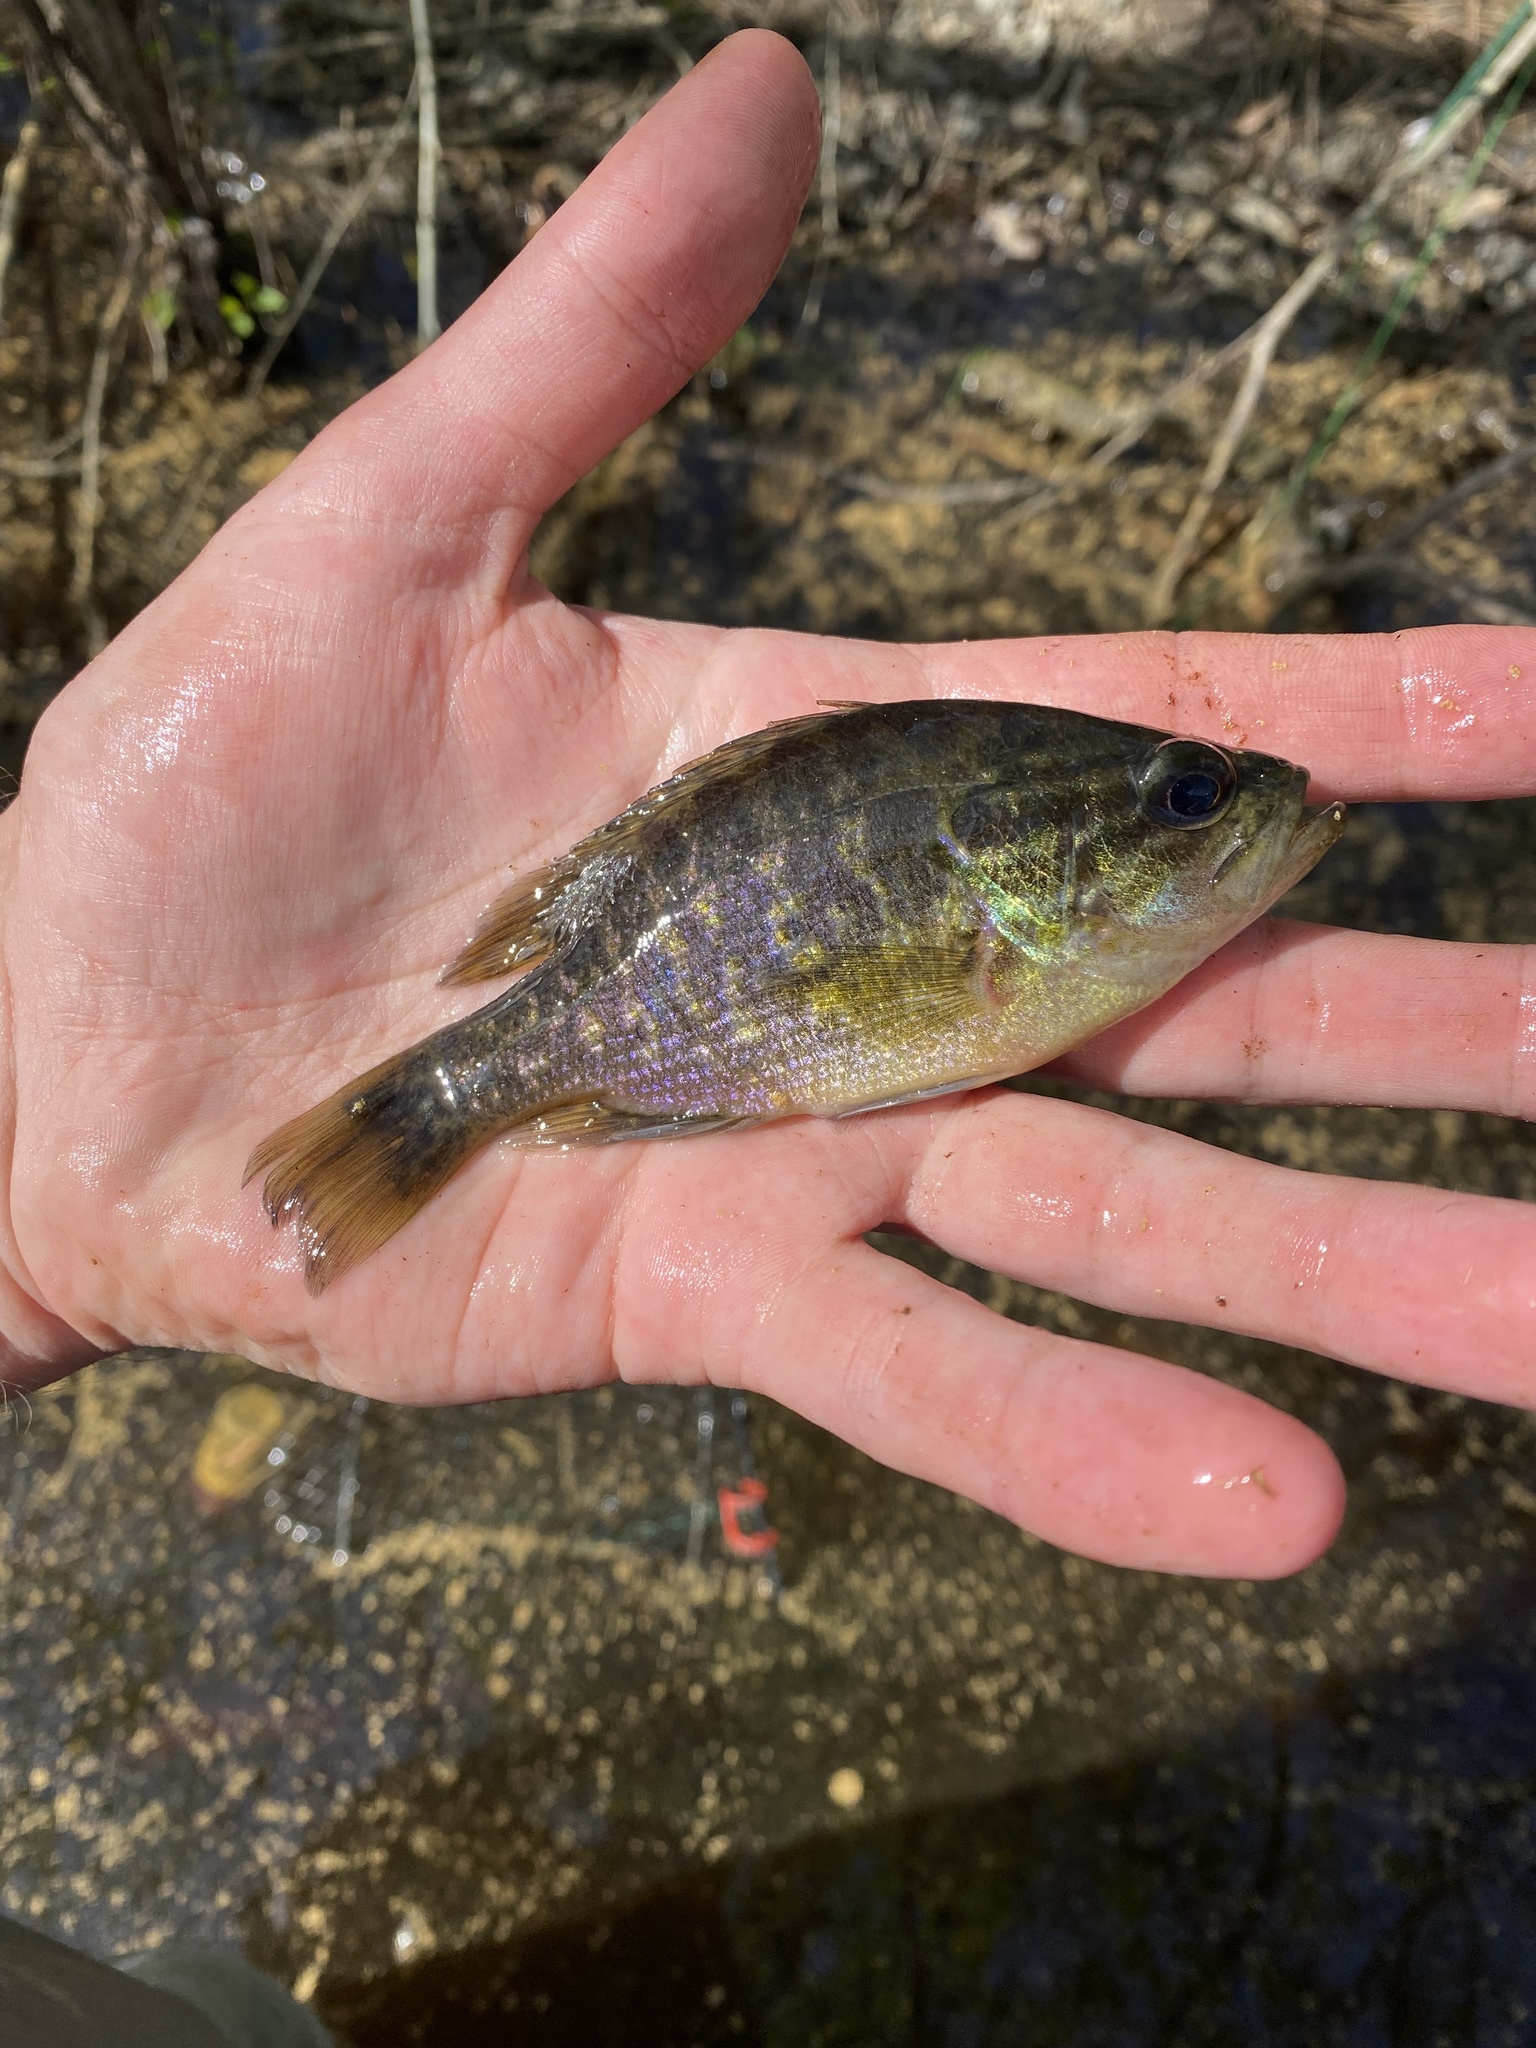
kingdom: Animalia
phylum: Chordata
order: Perciformes
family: Centrarchidae
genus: Lepomis
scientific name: Lepomis gulosus
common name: Warmouth
